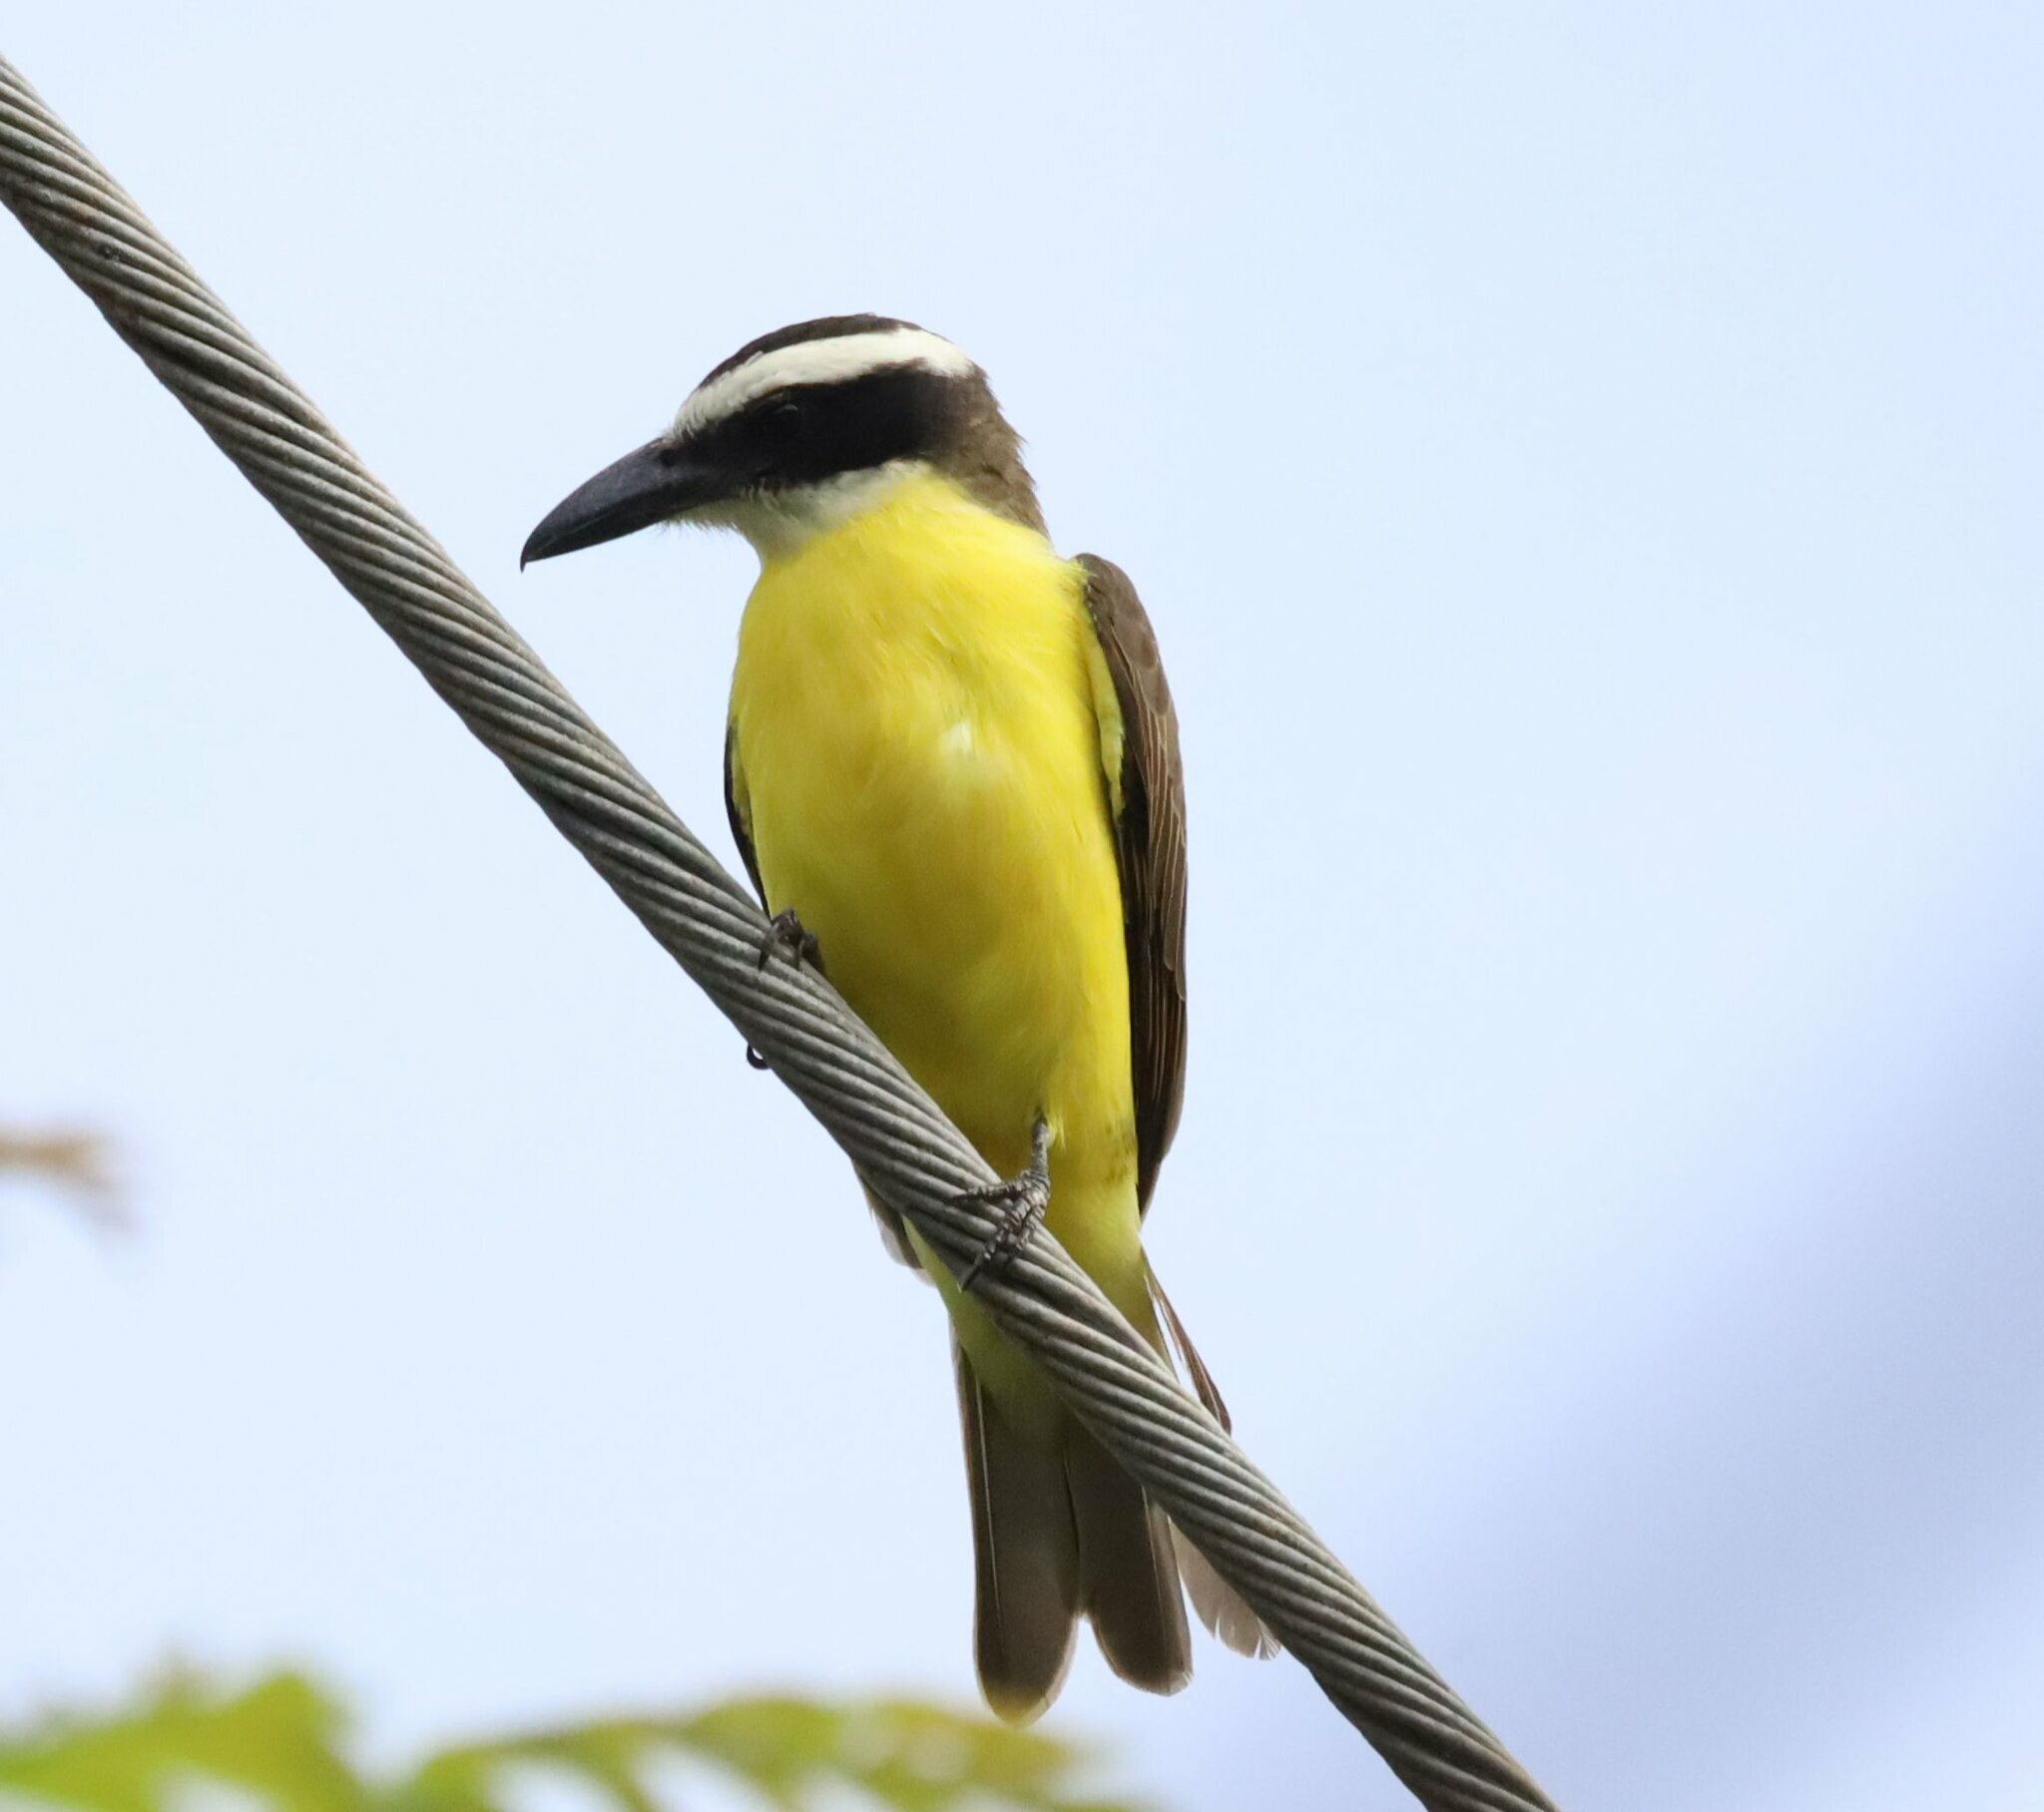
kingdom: Animalia
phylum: Chordata
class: Aves
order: Passeriformes
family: Tyrannidae
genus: Megarynchus
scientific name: Megarynchus pitangua
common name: Boat-billed flycatcher
